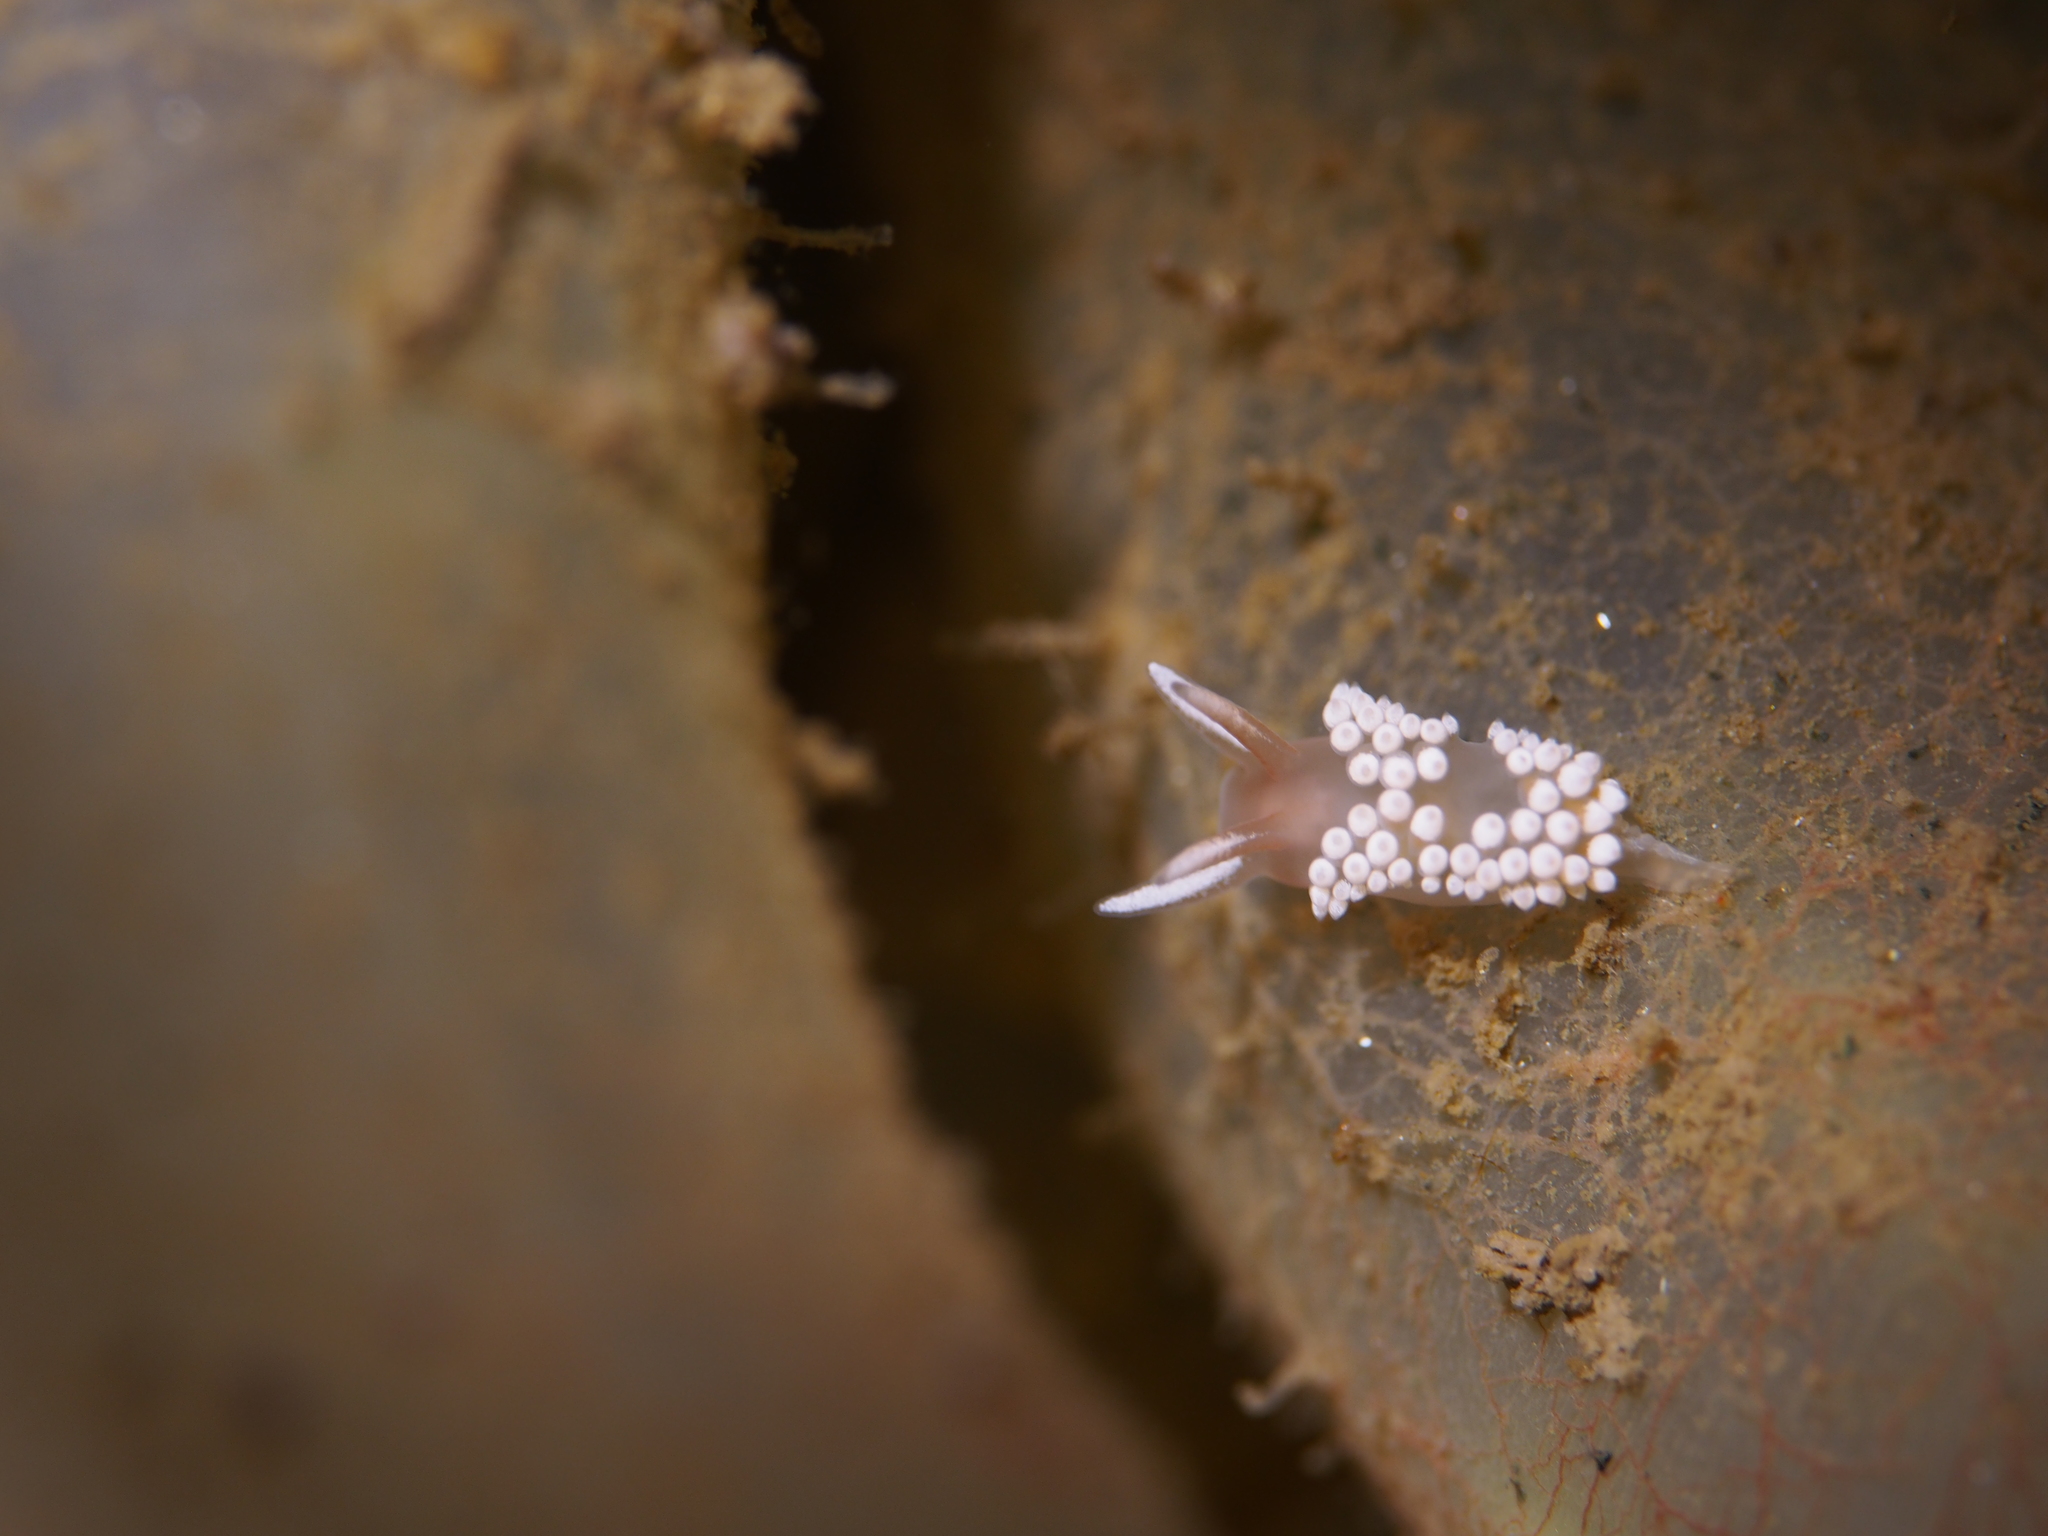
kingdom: Animalia
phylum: Mollusca
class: Gastropoda
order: Nudibranchia
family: Coryphellidae
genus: Coryphella
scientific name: Coryphella verrucosa
